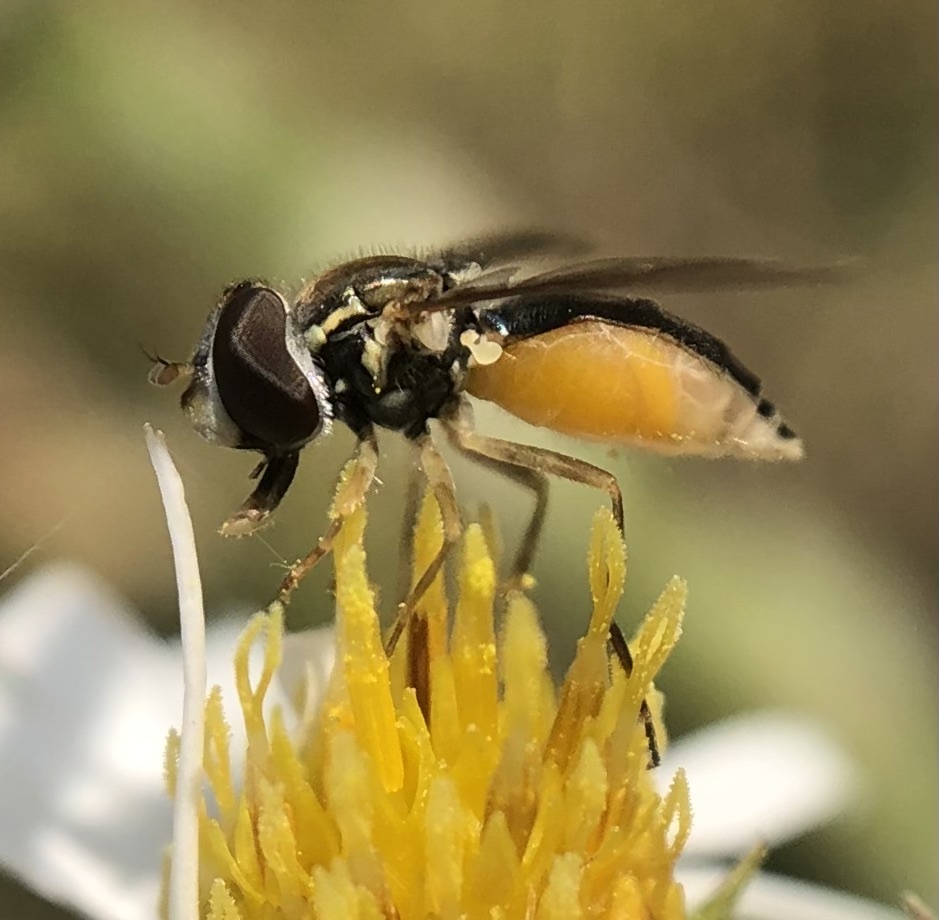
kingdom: Animalia
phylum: Arthropoda
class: Insecta
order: Diptera
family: Syrphidae
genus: Toxomerus
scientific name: Toxomerus marginatus
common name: Syrphid fly
